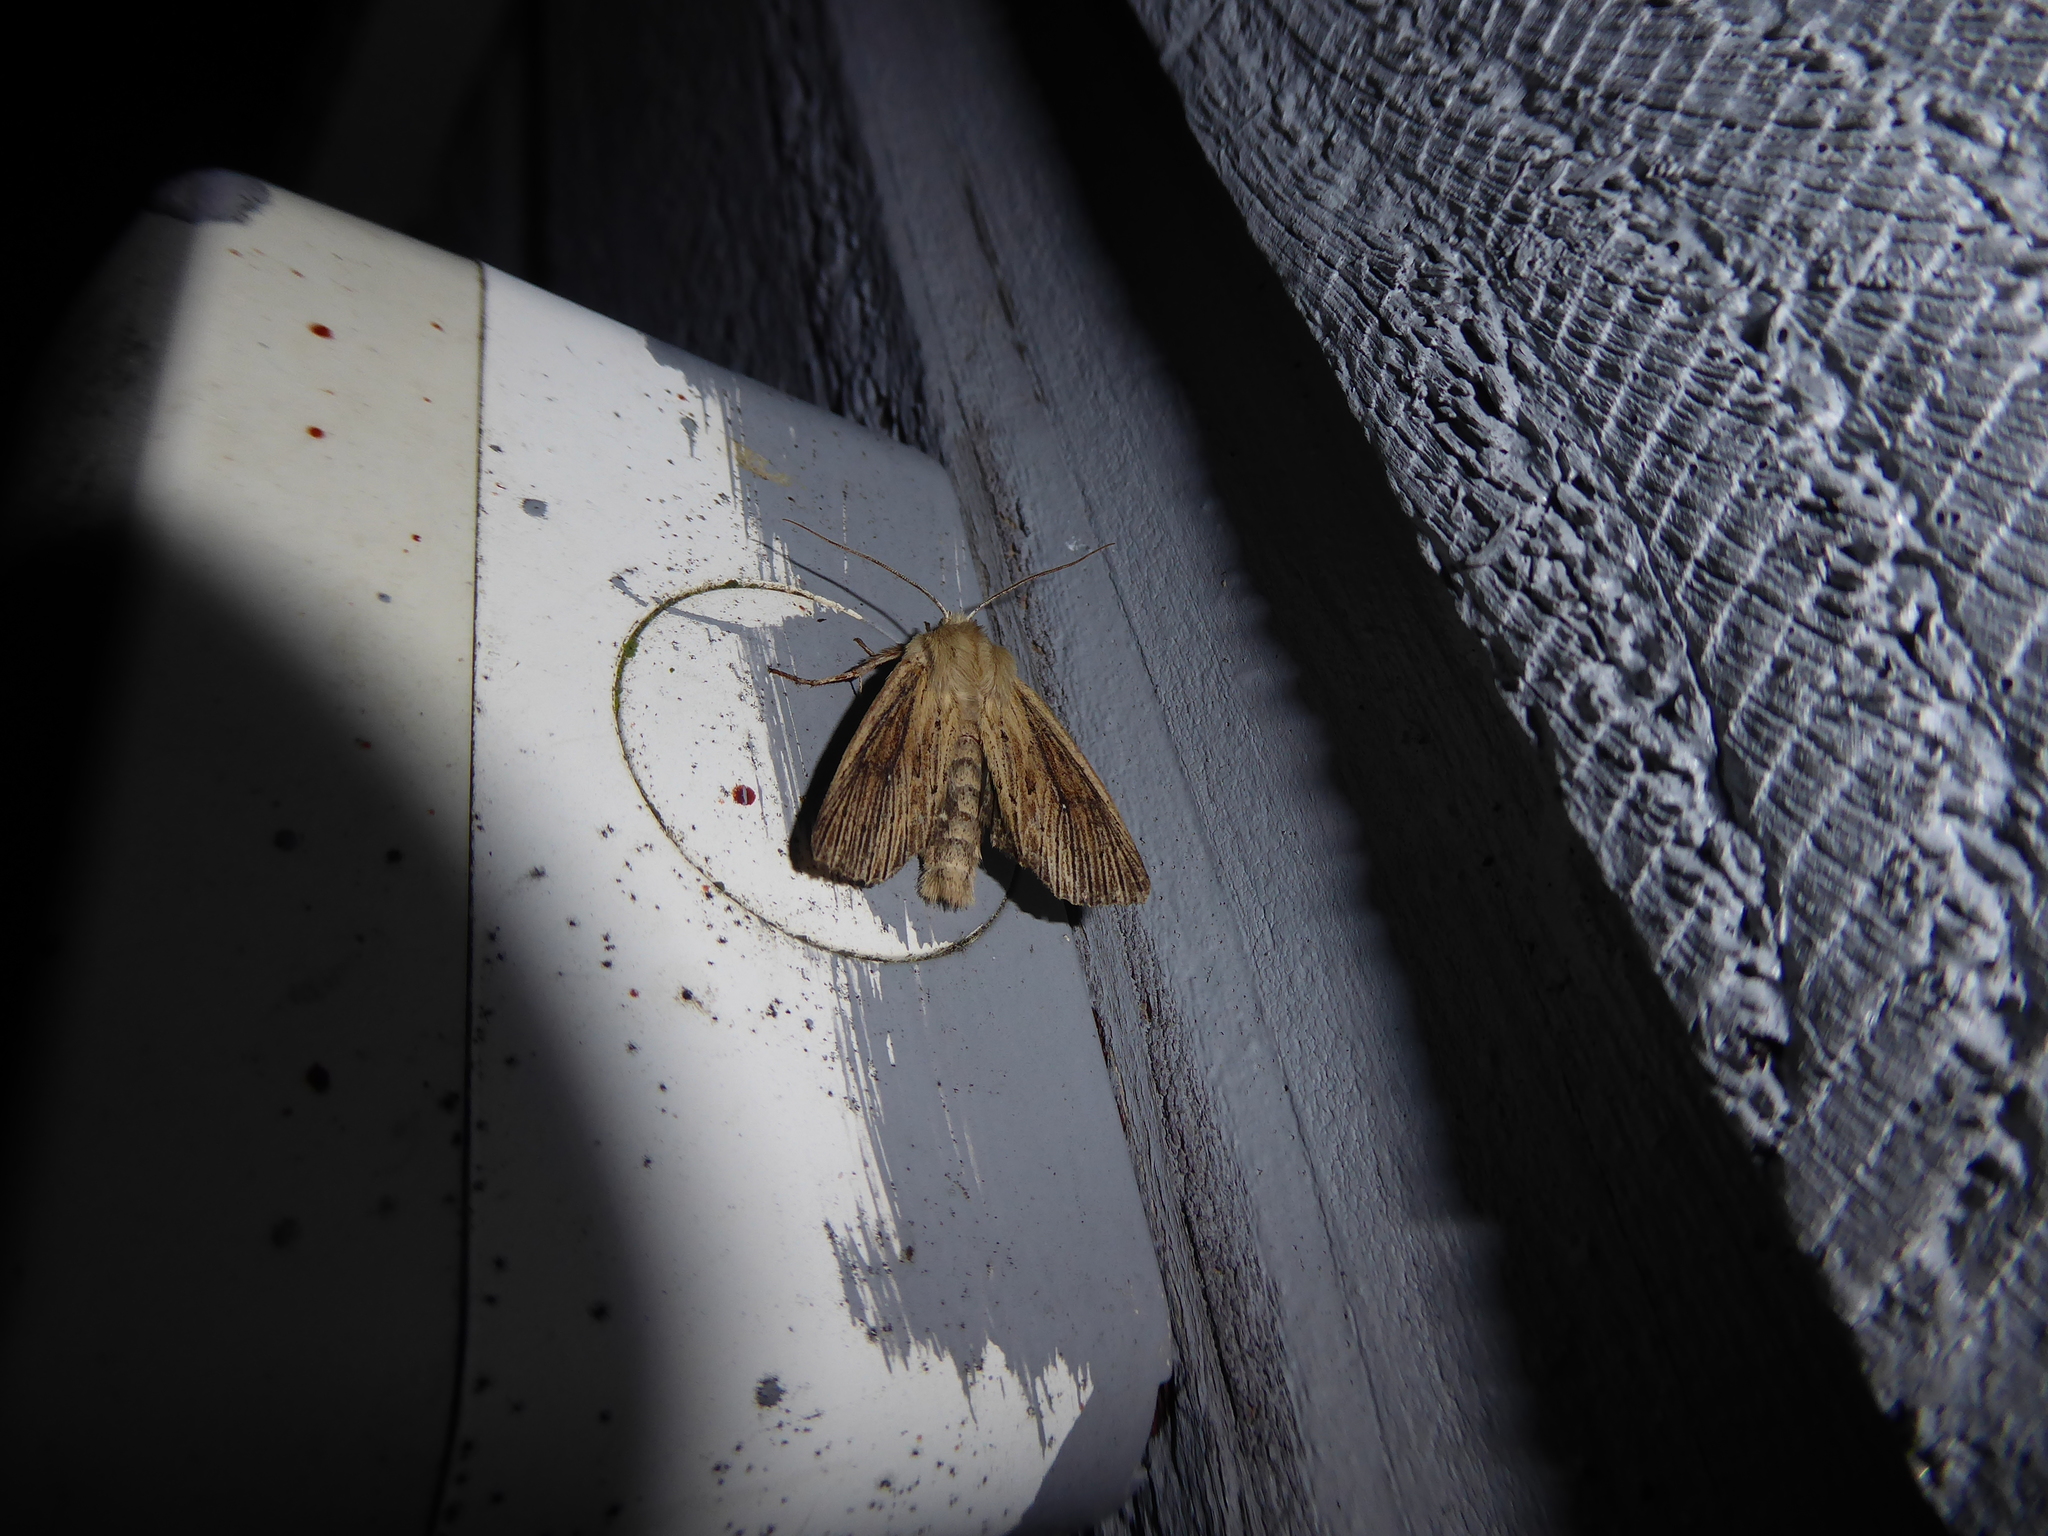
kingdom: Animalia
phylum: Arthropoda
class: Insecta
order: Lepidoptera
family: Noctuidae
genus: Ichneutica
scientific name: Ichneutica arotis
